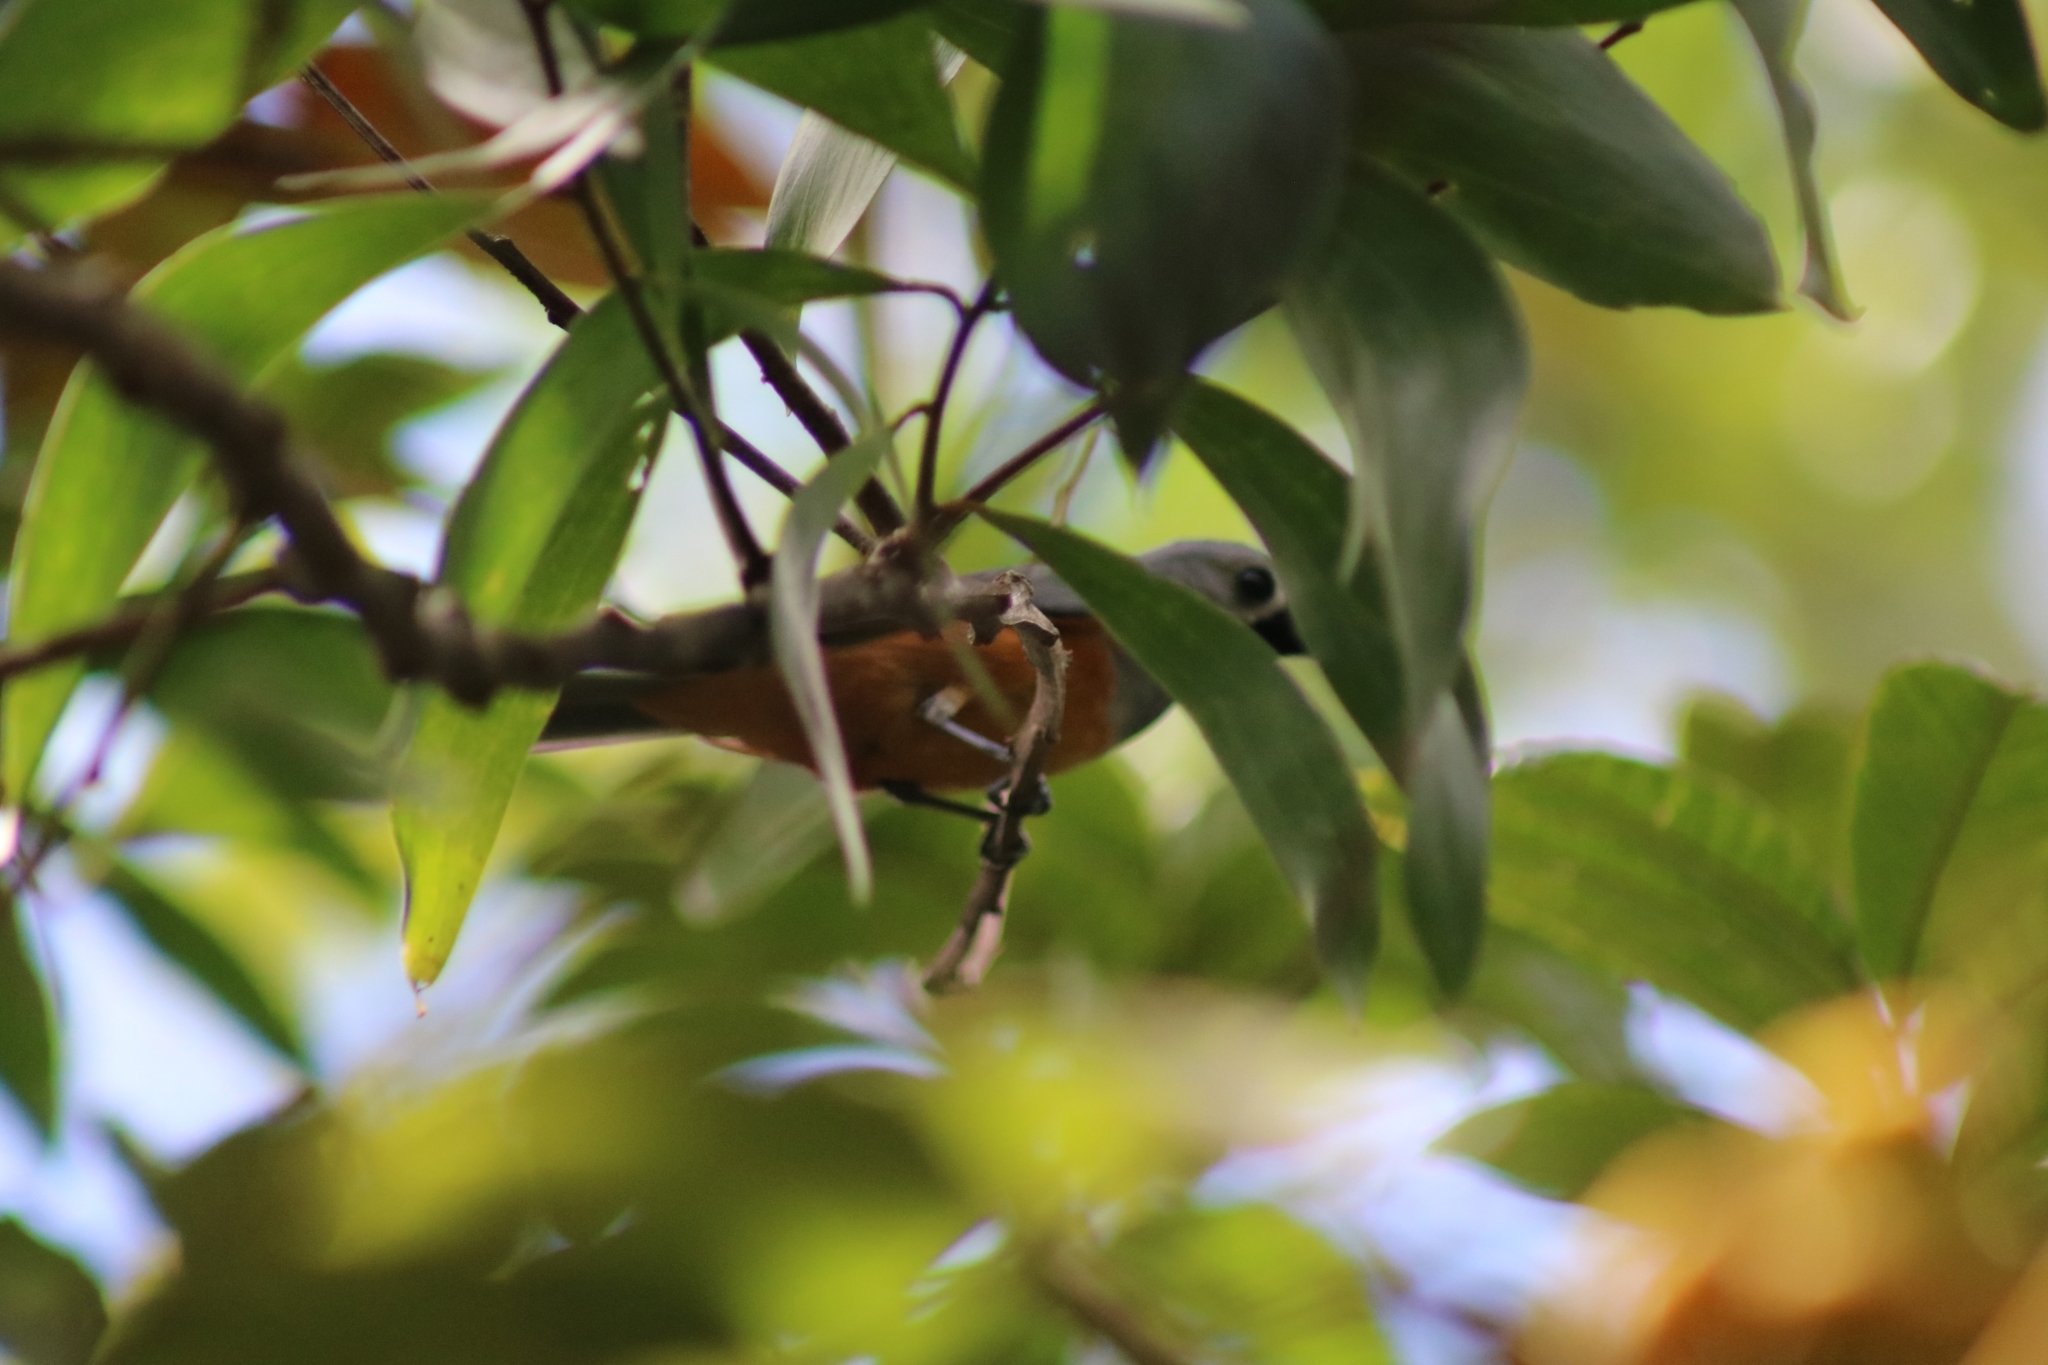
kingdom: Animalia
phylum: Chordata
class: Aves
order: Passeriformes
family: Monarchidae
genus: Monarcha
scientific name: Monarcha melanopsis
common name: Black-faced monarch
